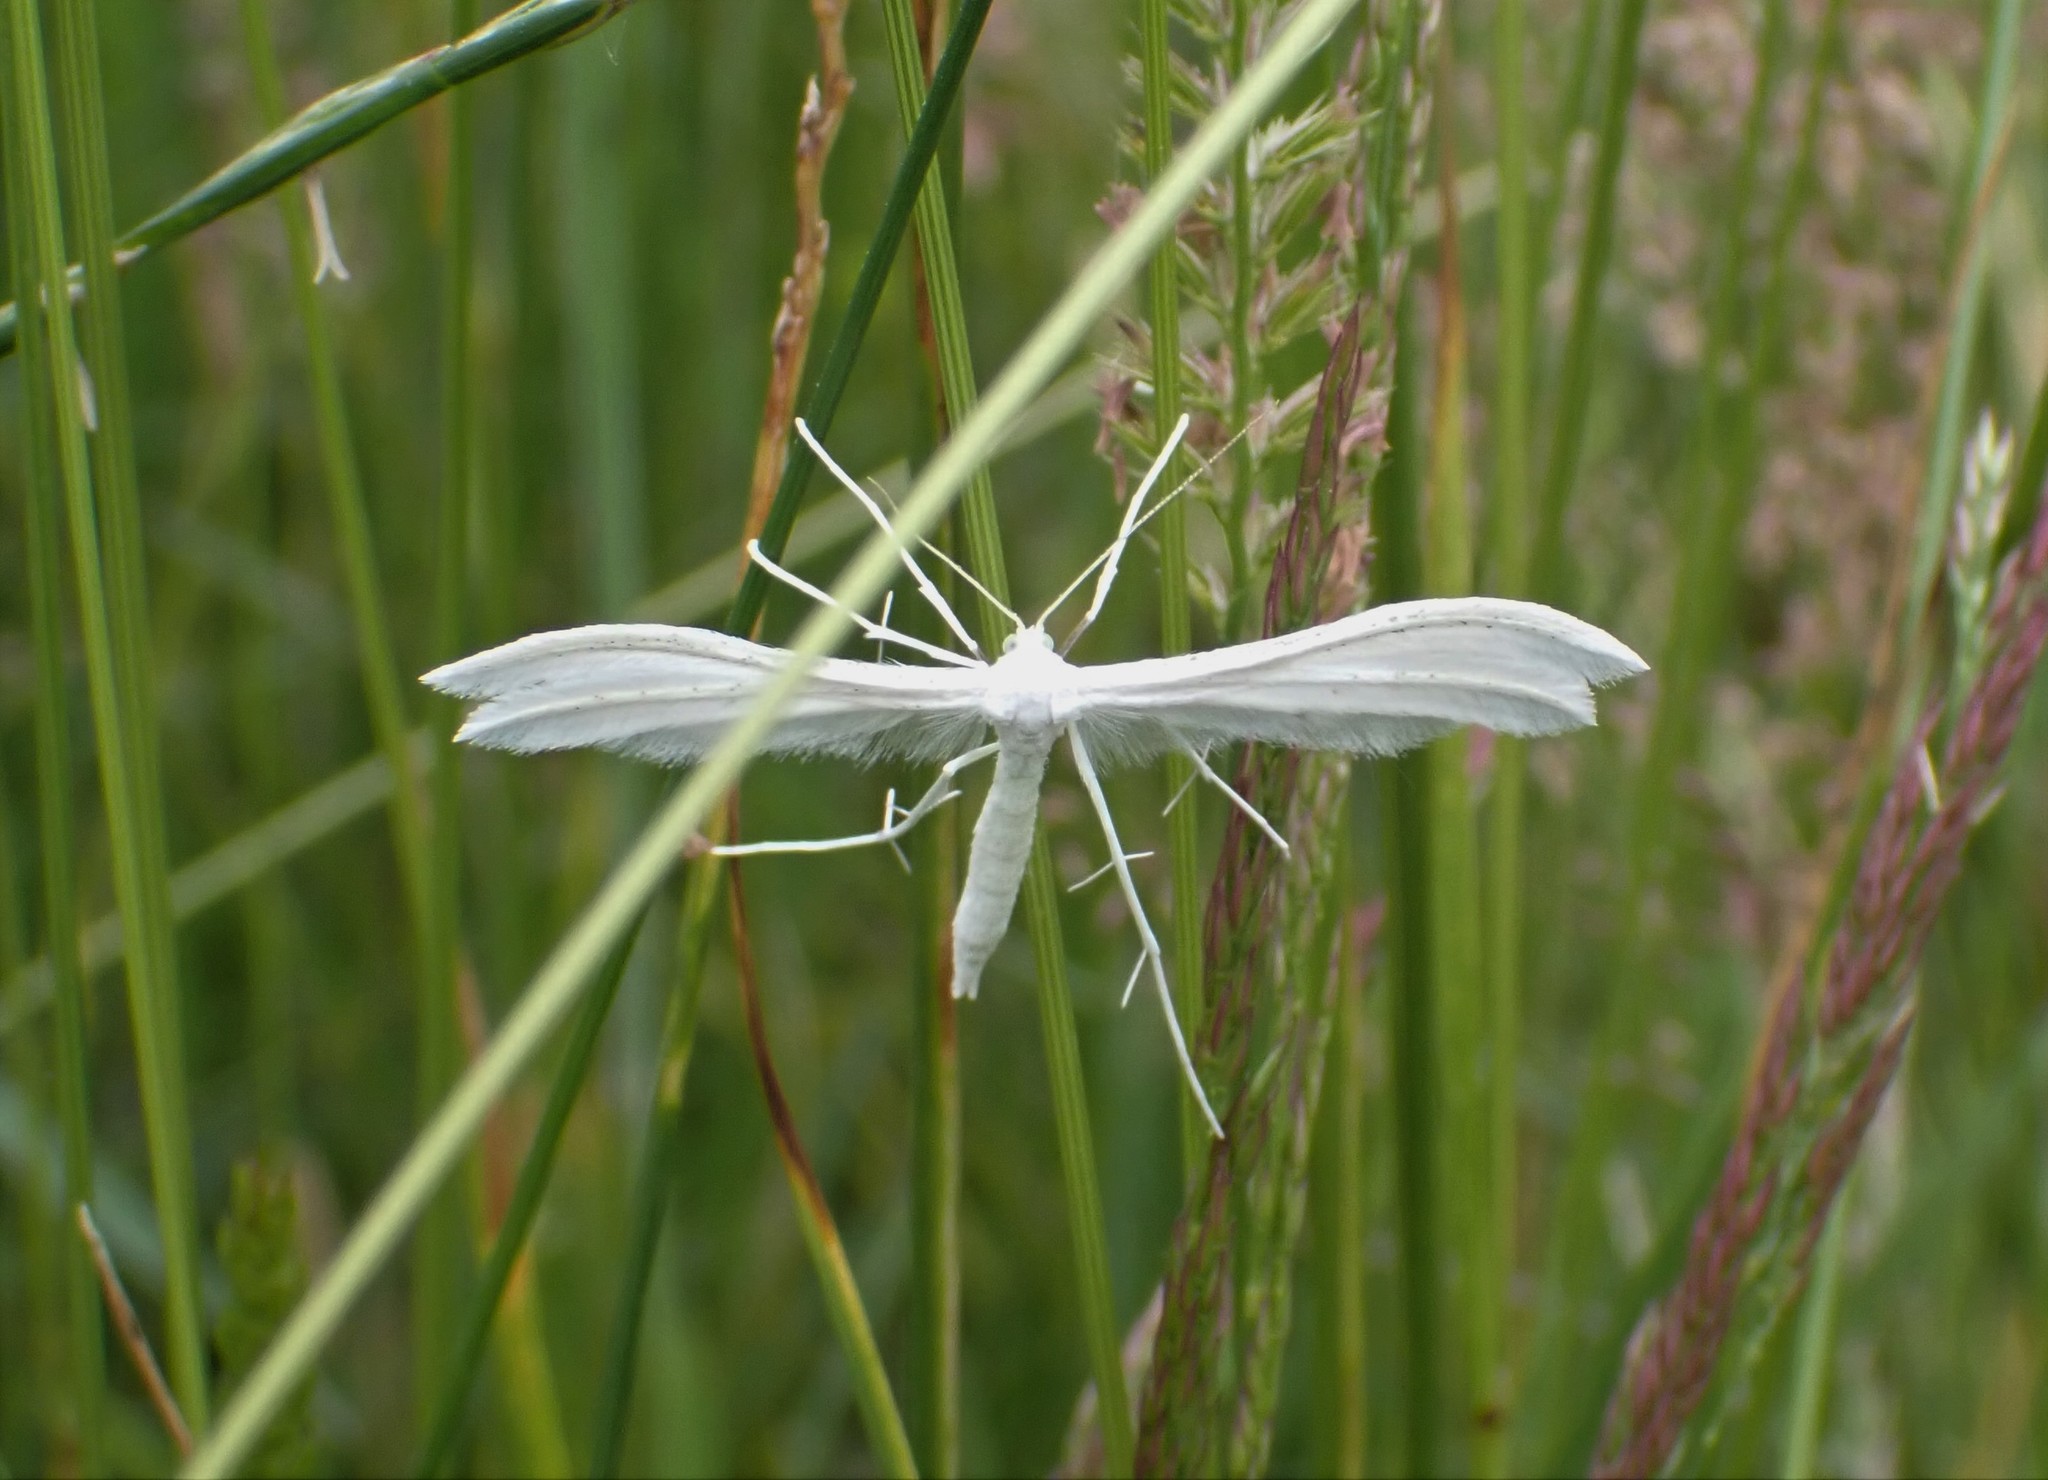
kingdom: Animalia
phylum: Arthropoda
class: Insecta
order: Lepidoptera
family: Pterophoridae
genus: Pterophorus
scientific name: Pterophorus pentadactyla
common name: White plume moth
